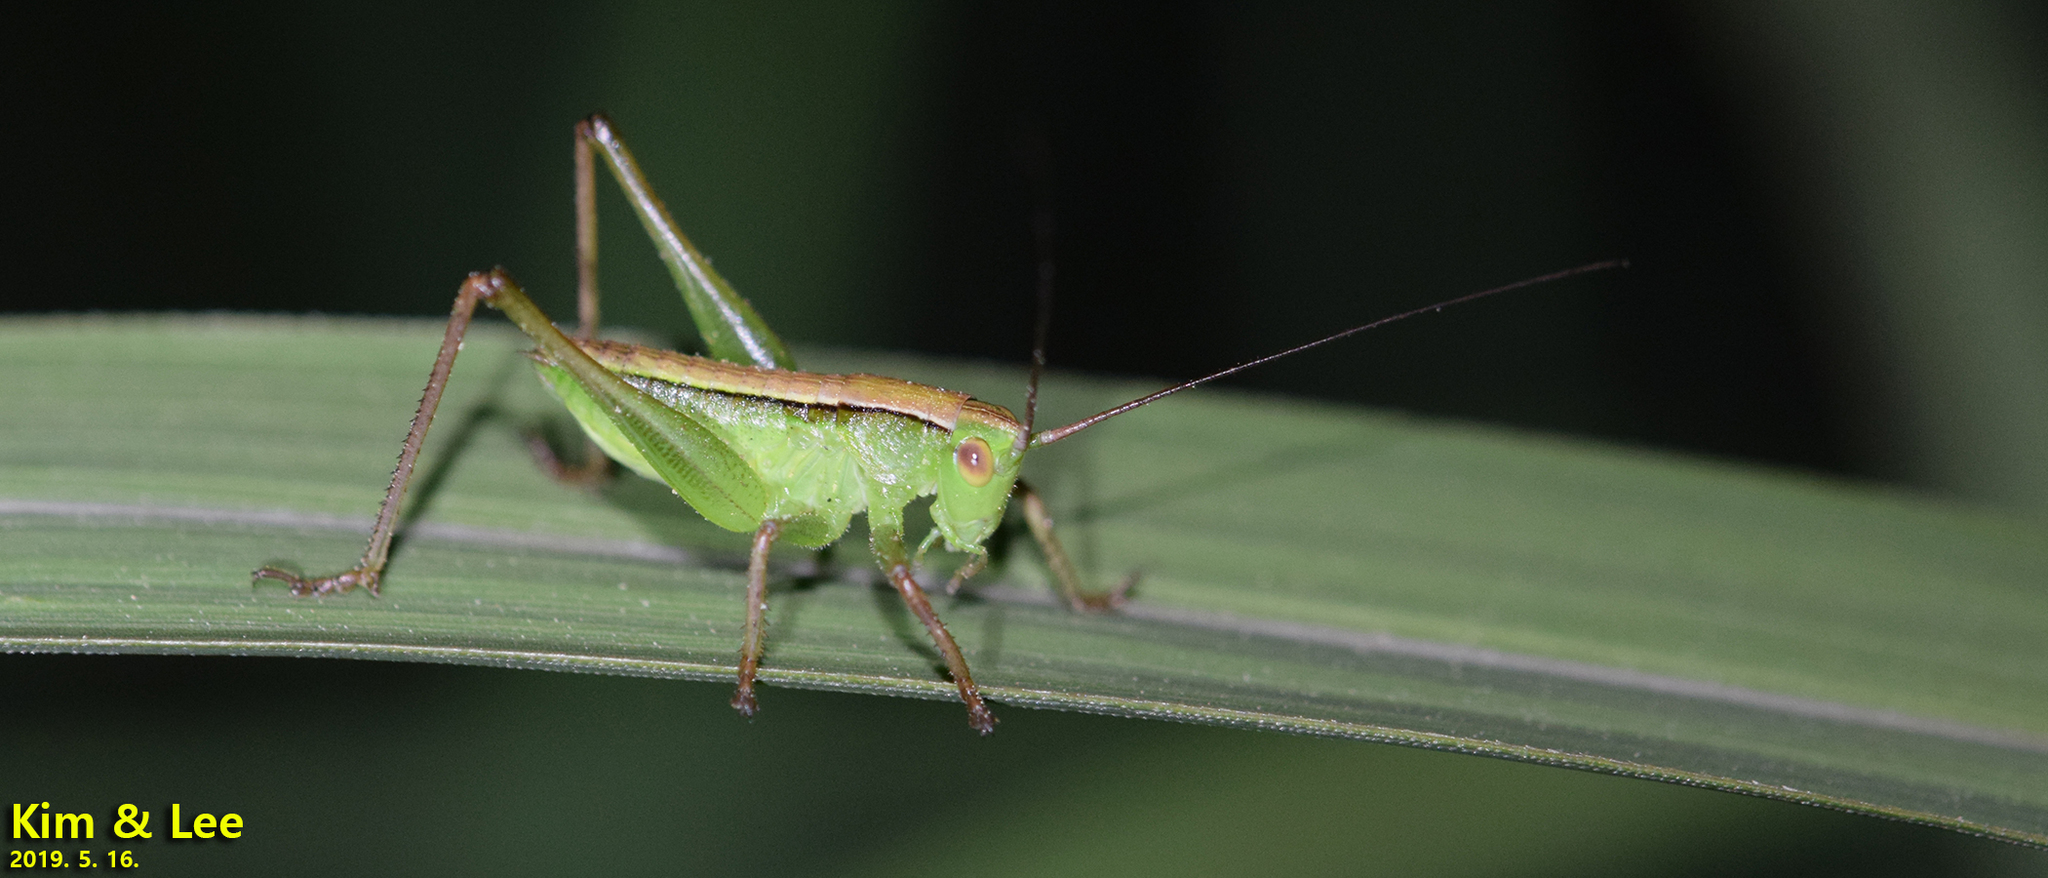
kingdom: Animalia
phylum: Arthropoda
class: Insecta
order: Orthoptera
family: Tettigoniidae
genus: Gampsocleis
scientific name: Gampsocleis ussuriensis
